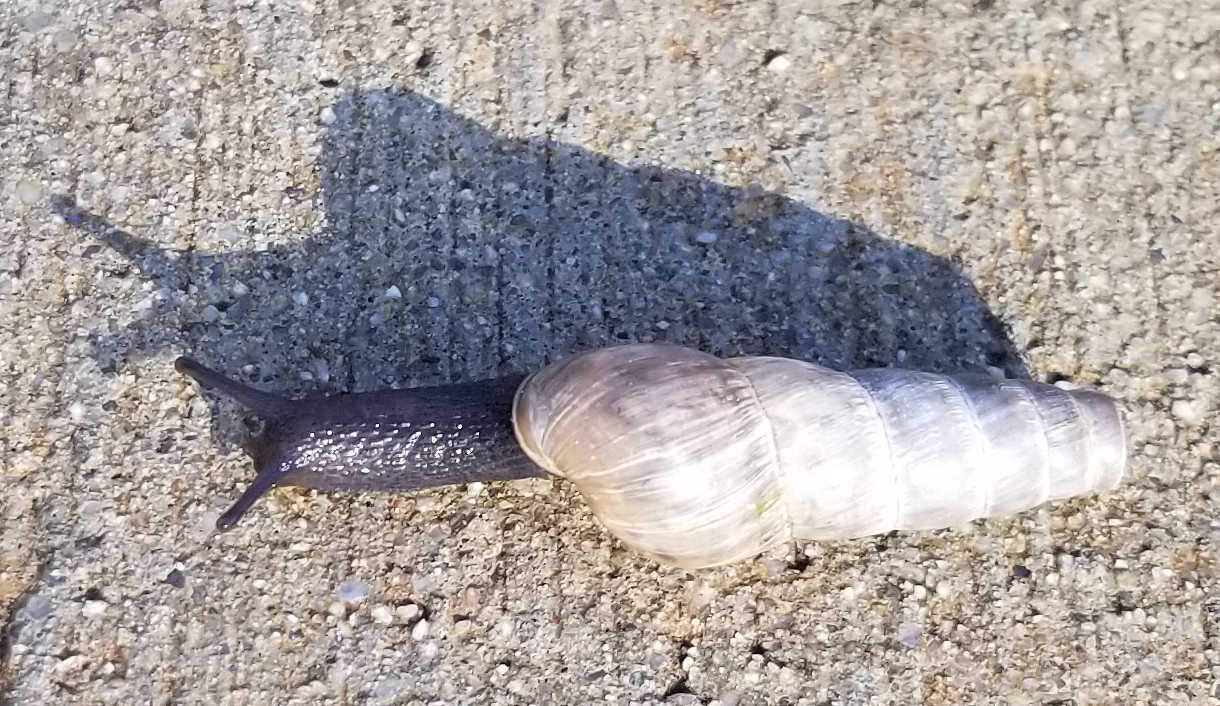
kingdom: Animalia
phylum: Mollusca
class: Gastropoda
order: Stylommatophora
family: Achatinidae
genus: Rumina
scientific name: Rumina decollata
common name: Decollate snail
